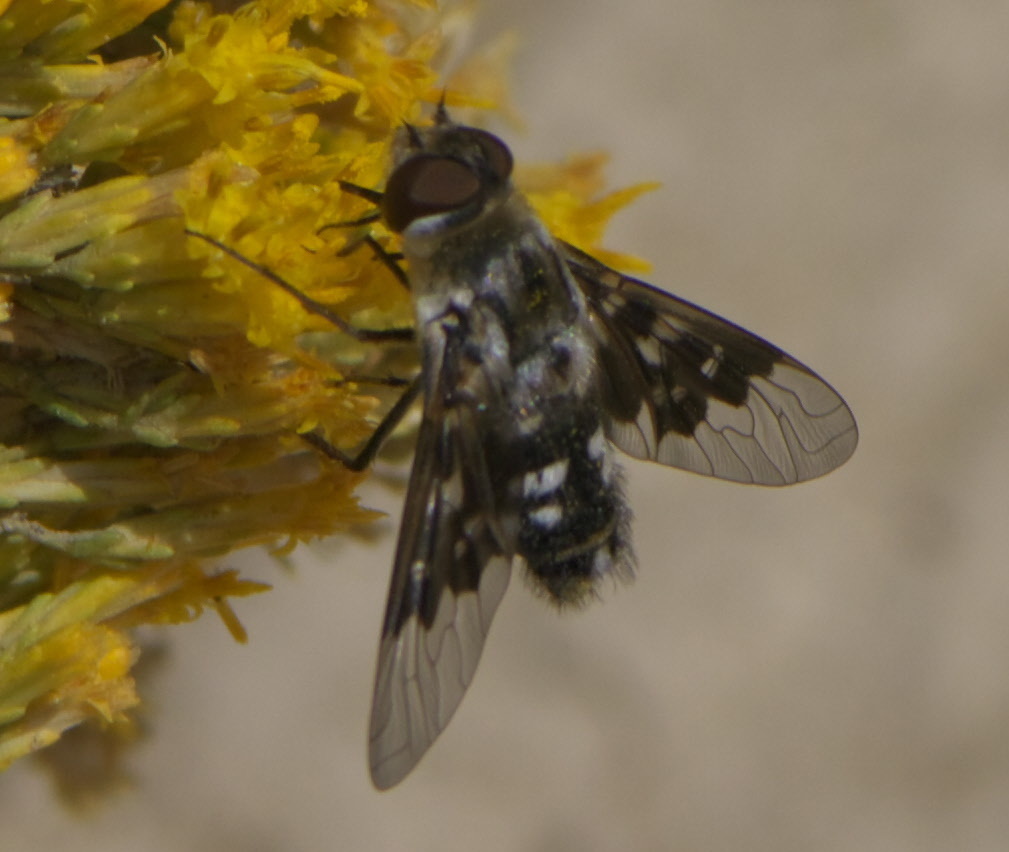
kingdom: Animalia
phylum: Arthropoda
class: Insecta
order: Diptera
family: Bombyliidae
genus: Thyridanthrax
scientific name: Thyridanthrax fenestratoides
